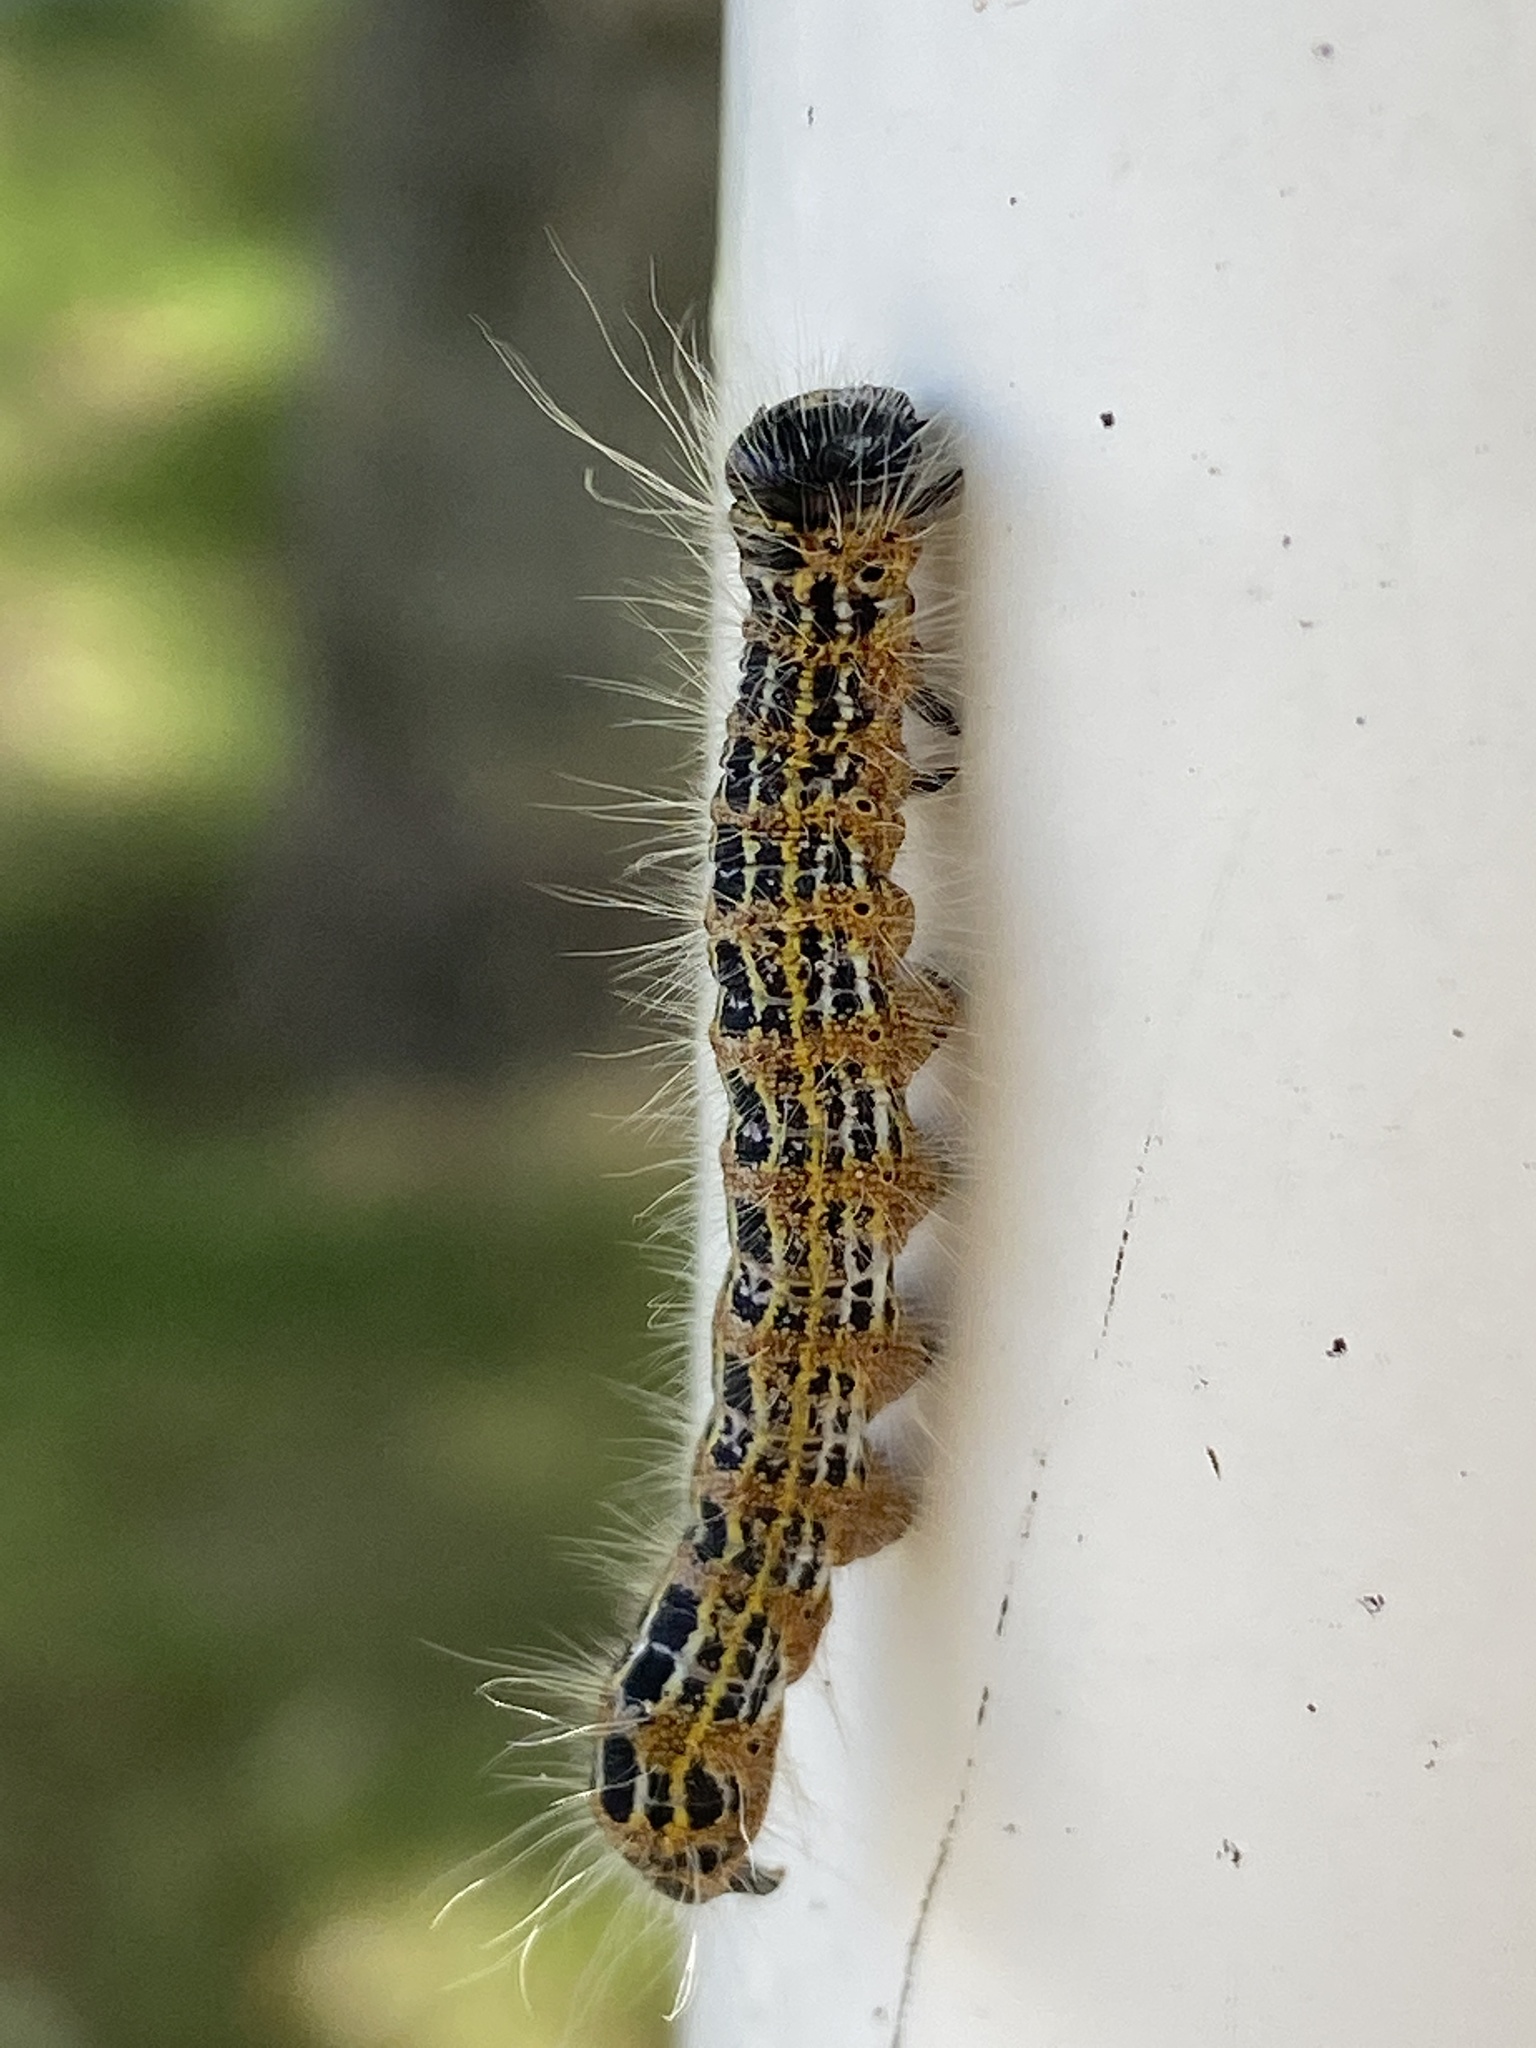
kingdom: Animalia
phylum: Arthropoda
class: Insecta
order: Lepidoptera
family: Notodontidae
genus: Phalera
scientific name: Phalera bucephala
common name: Buff-tip
